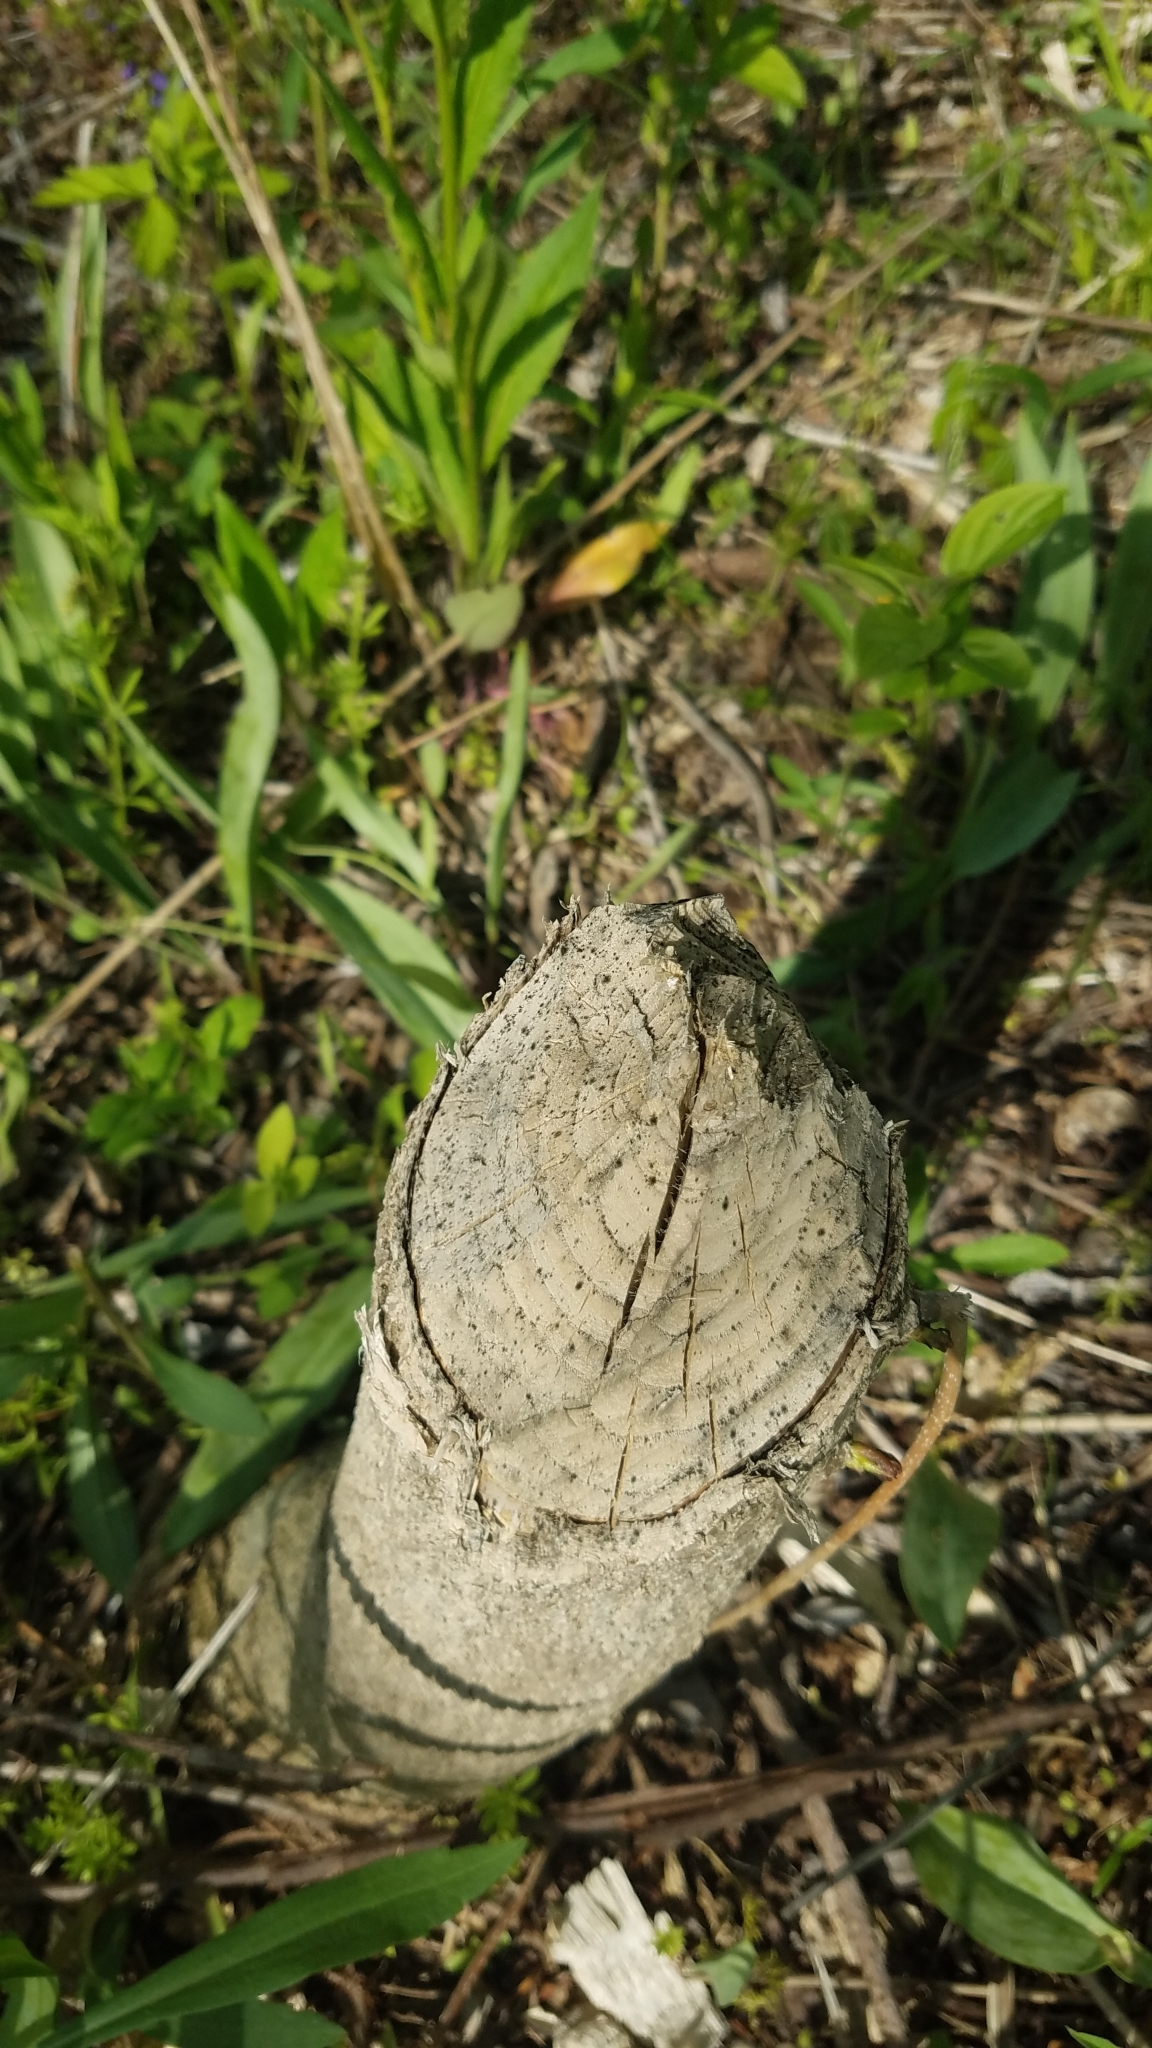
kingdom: Animalia
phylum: Chordata
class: Mammalia
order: Rodentia
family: Castoridae
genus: Castor
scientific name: Castor canadensis
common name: American beaver
